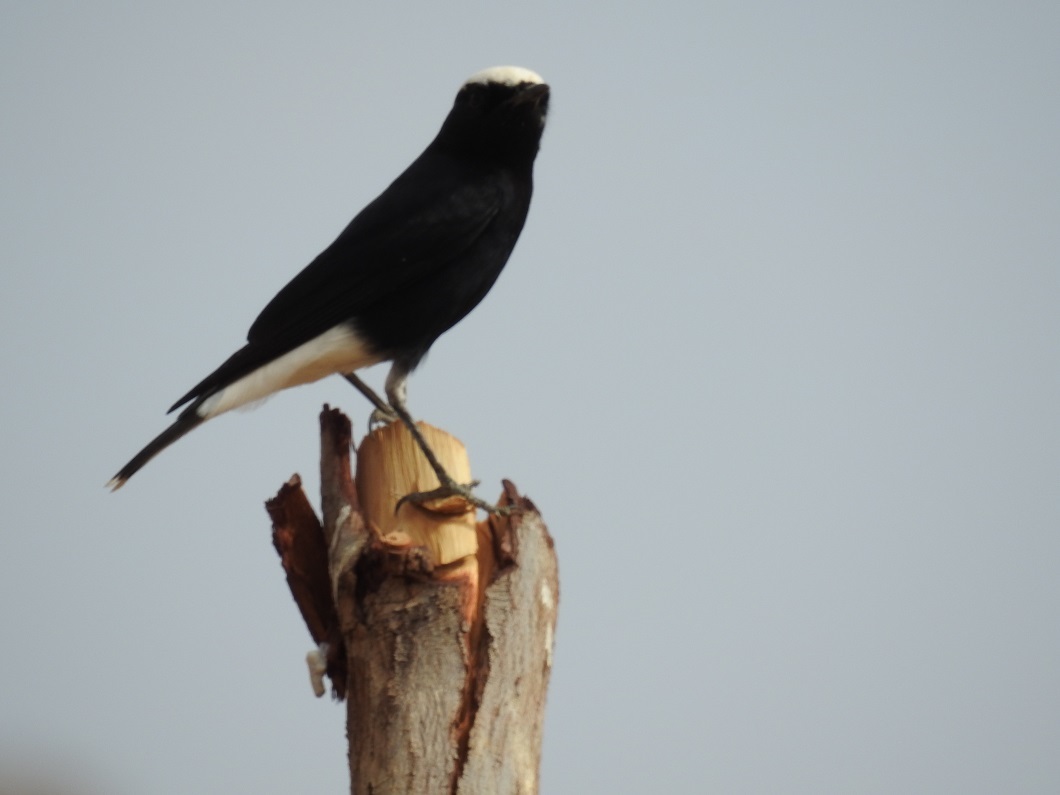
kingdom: Animalia
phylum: Chordata
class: Aves
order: Passeriformes
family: Muscicapidae
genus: Oenanthe
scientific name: Oenanthe leucopyga
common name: White-crowned wheatear
